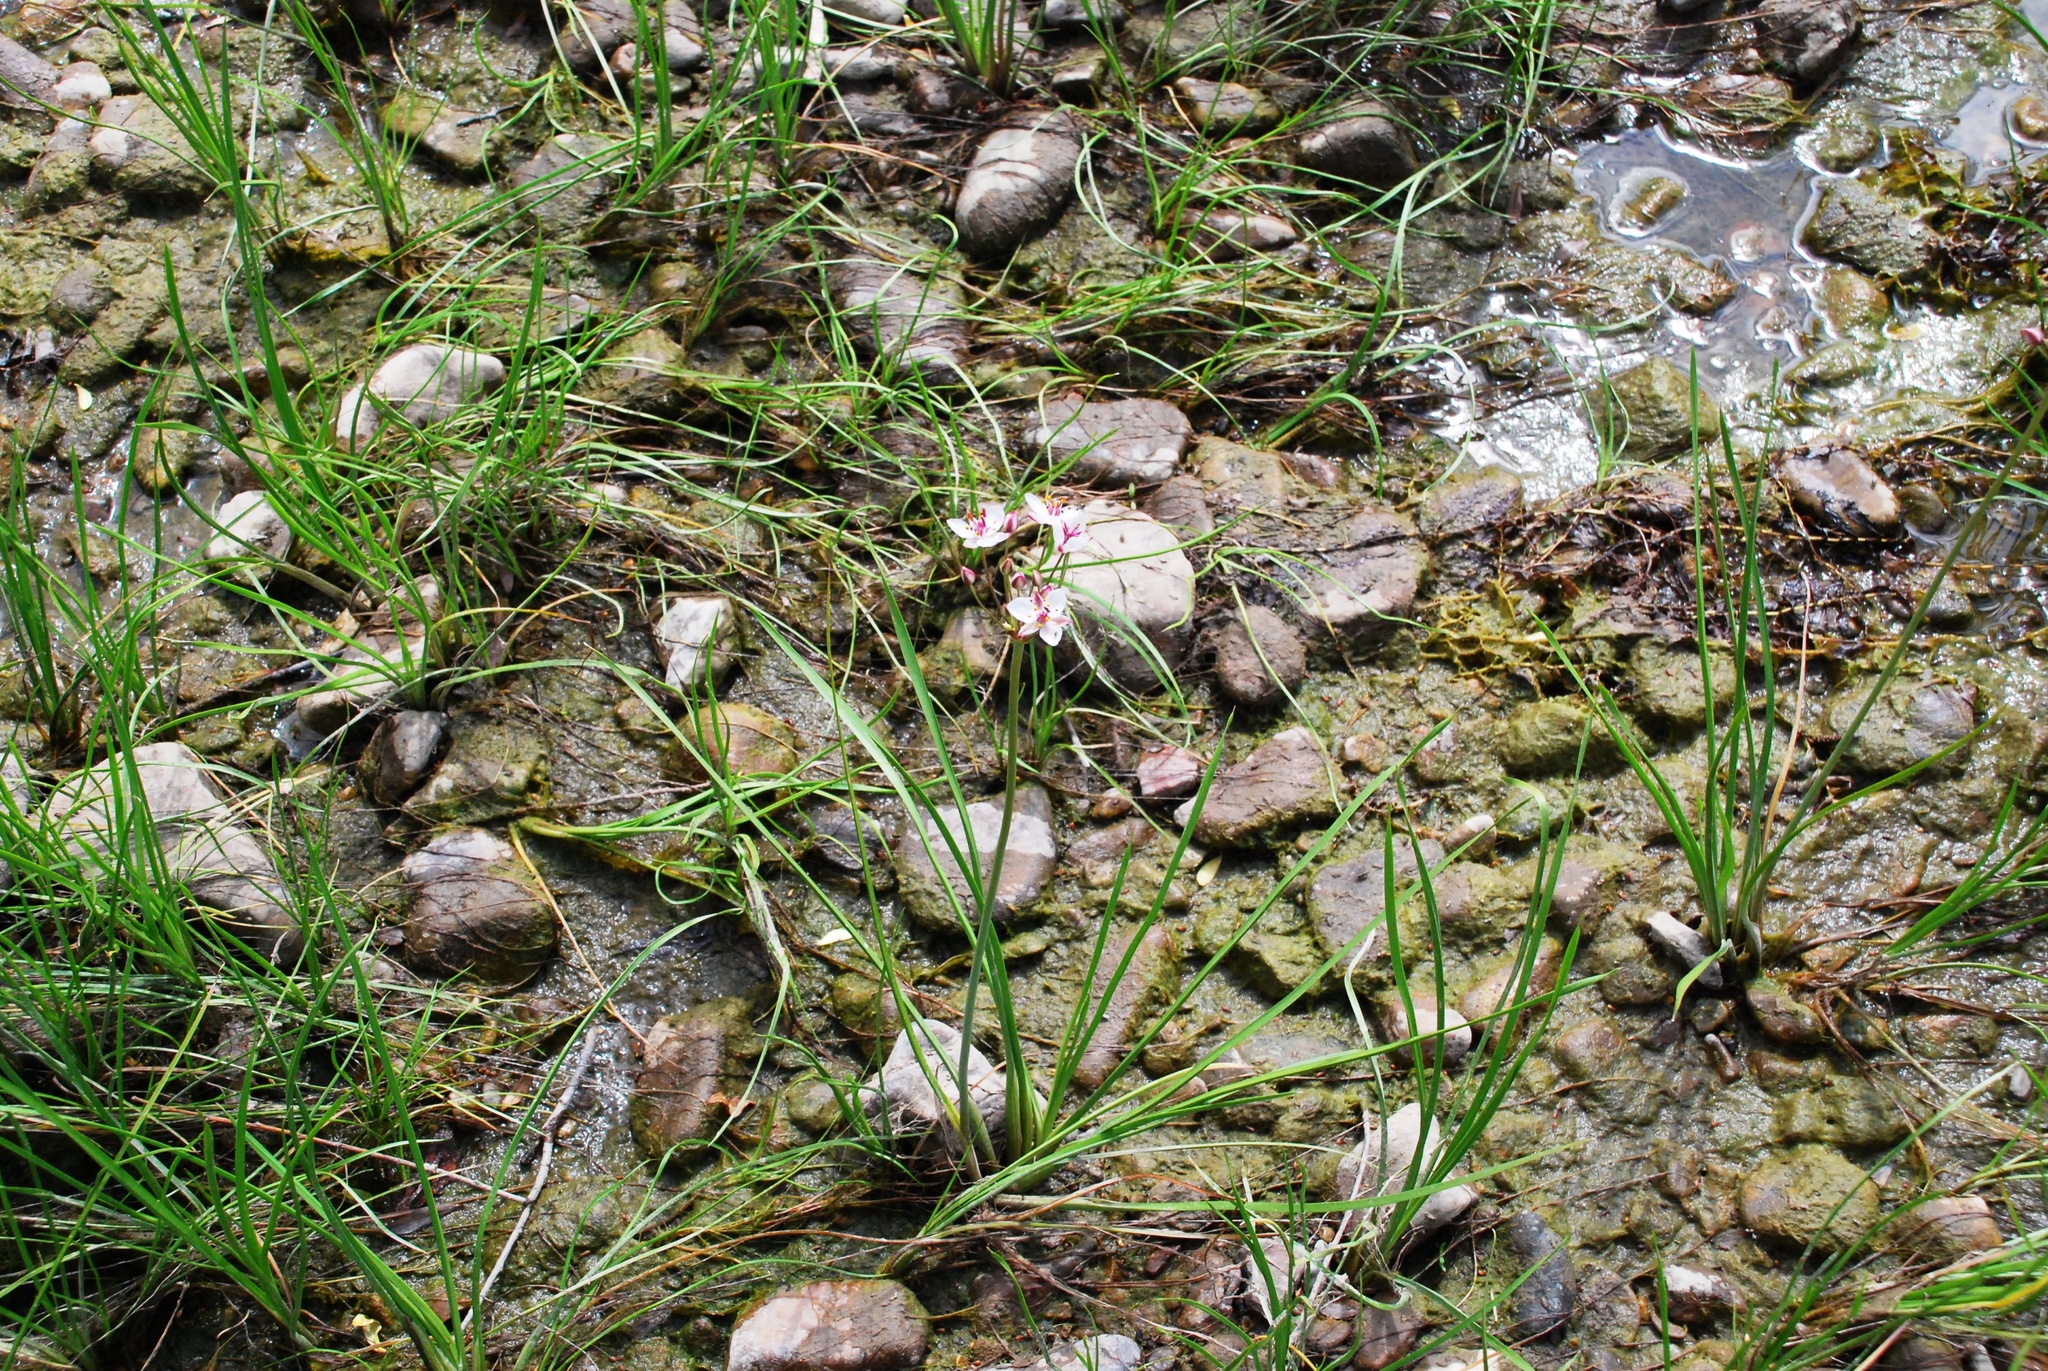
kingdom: Plantae
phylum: Tracheophyta
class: Liliopsida
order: Alismatales
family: Butomaceae
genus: Butomus
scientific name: Butomus umbellatus
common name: Flowering-rush
